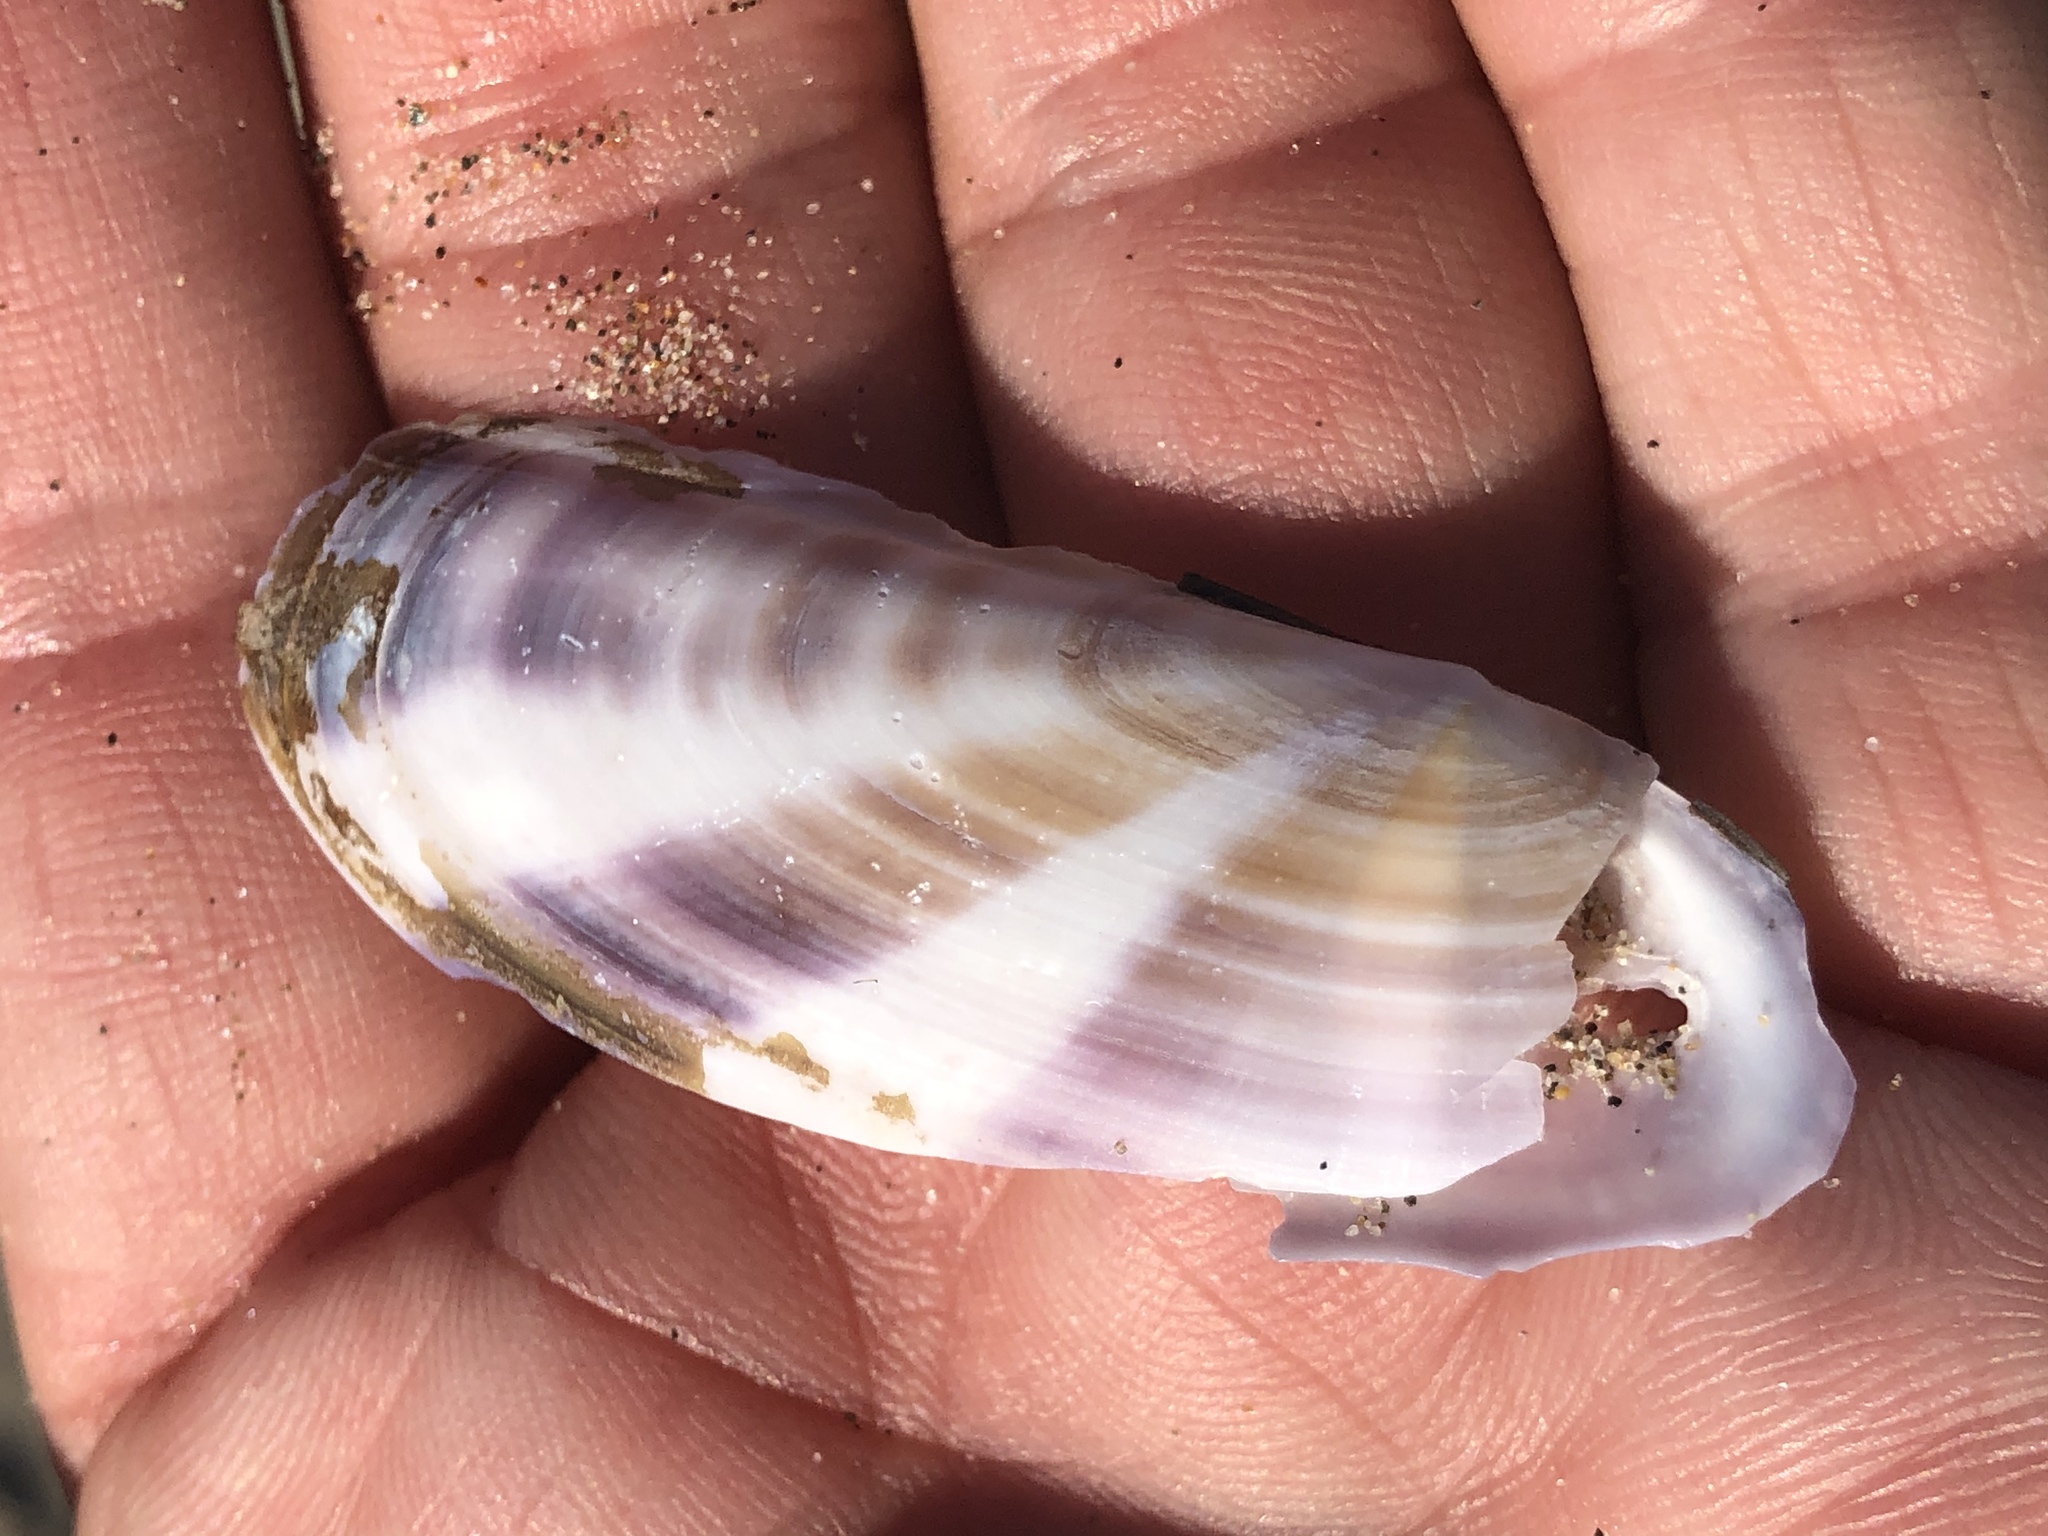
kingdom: Animalia
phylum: Mollusca
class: Bivalvia
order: Adapedonta
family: Pharidae
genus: Siliqua
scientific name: Siliqua patula
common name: Pacific razor clam
